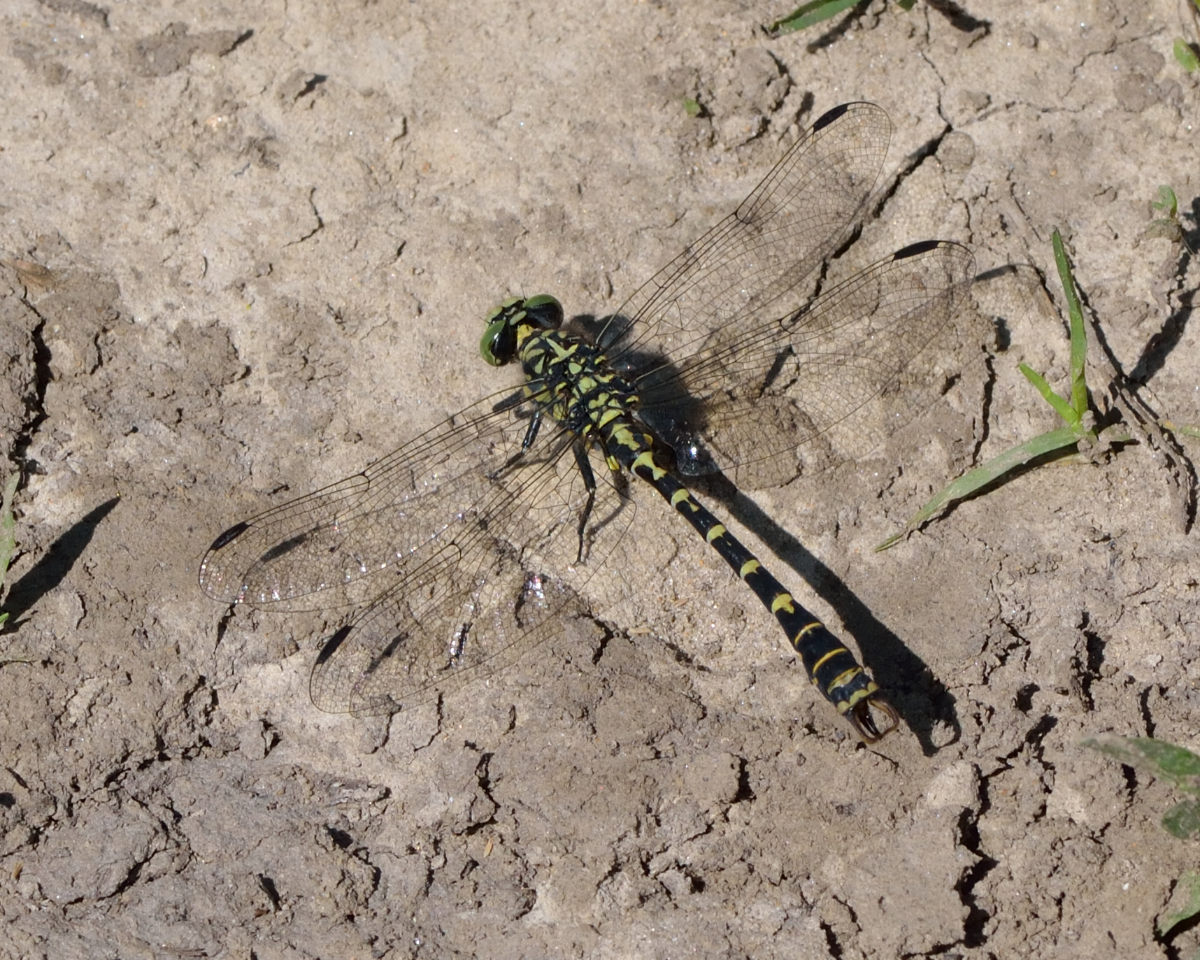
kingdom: Animalia
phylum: Arthropoda
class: Insecta
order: Odonata
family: Gomphidae
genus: Onychogomphus
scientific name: Onychogomphus forcipatus
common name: Small pincertail
